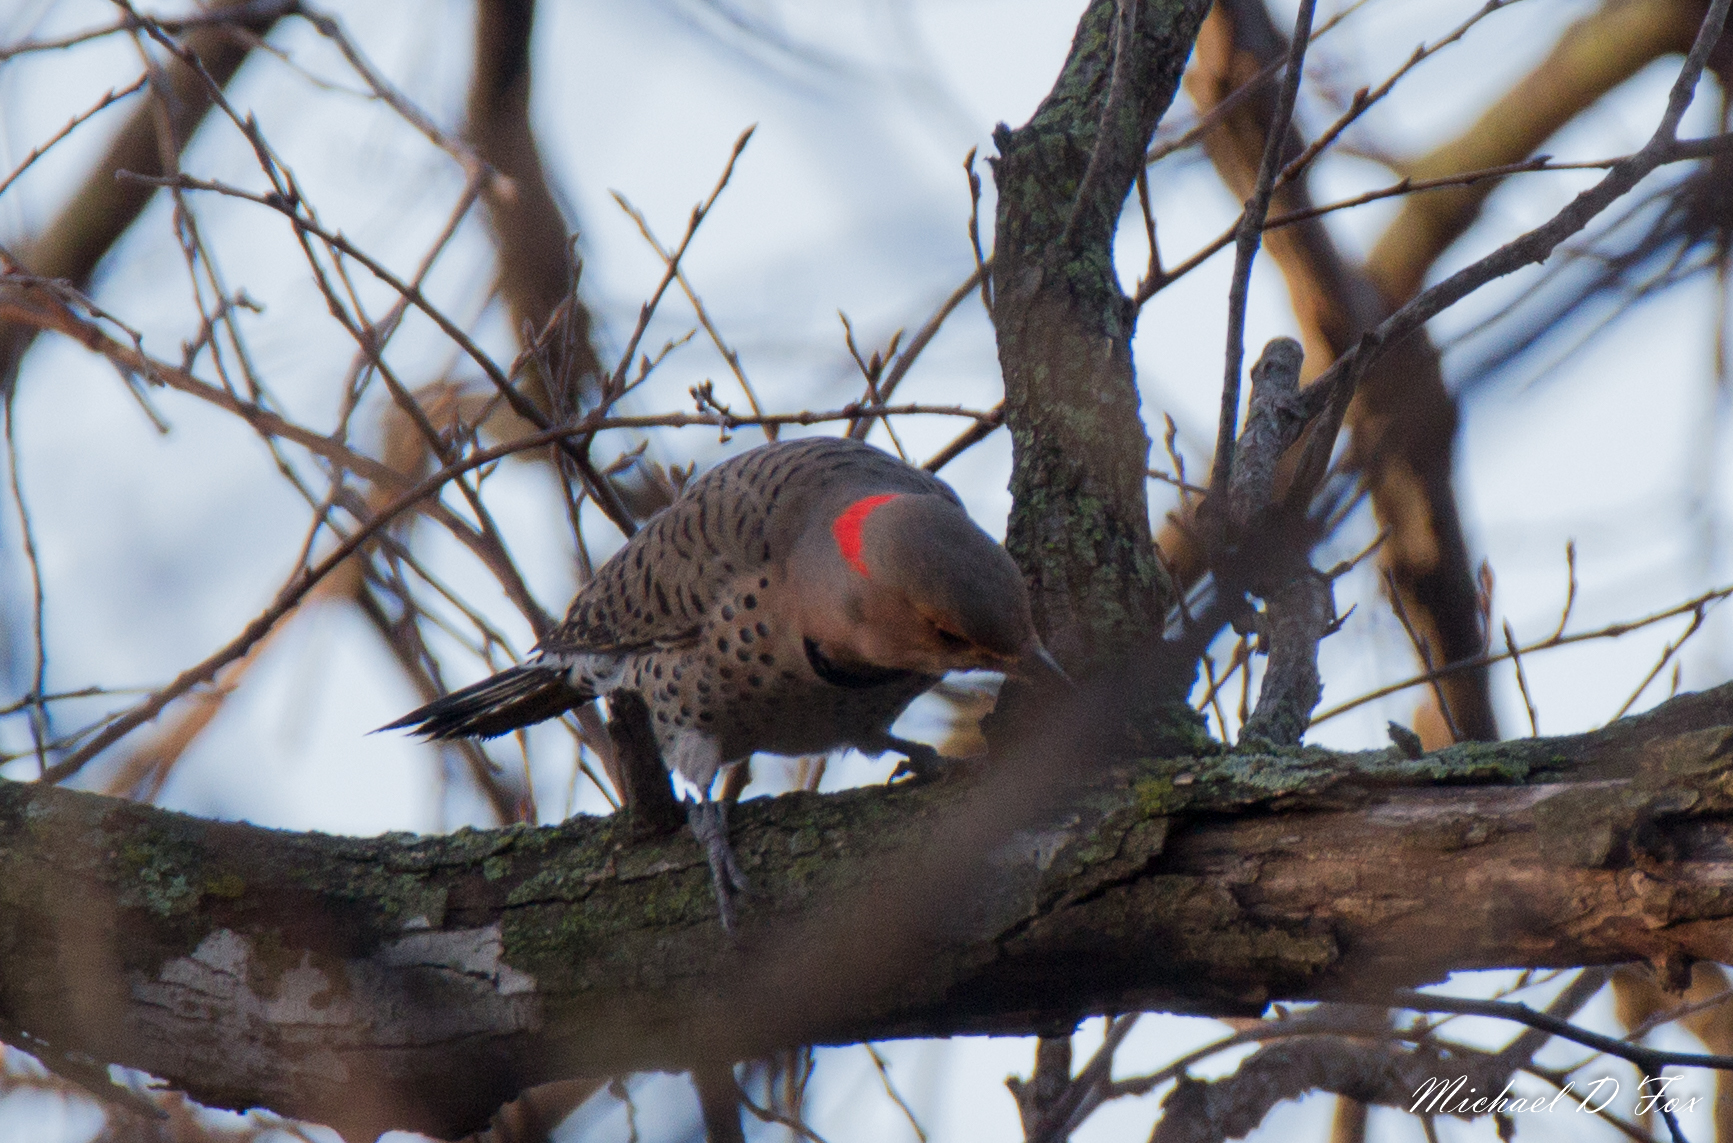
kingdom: Animalia
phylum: Chordata
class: Aves
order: Piciformes
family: Picidae
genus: Colaptes
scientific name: Colaptes auratus
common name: Northern flicker
